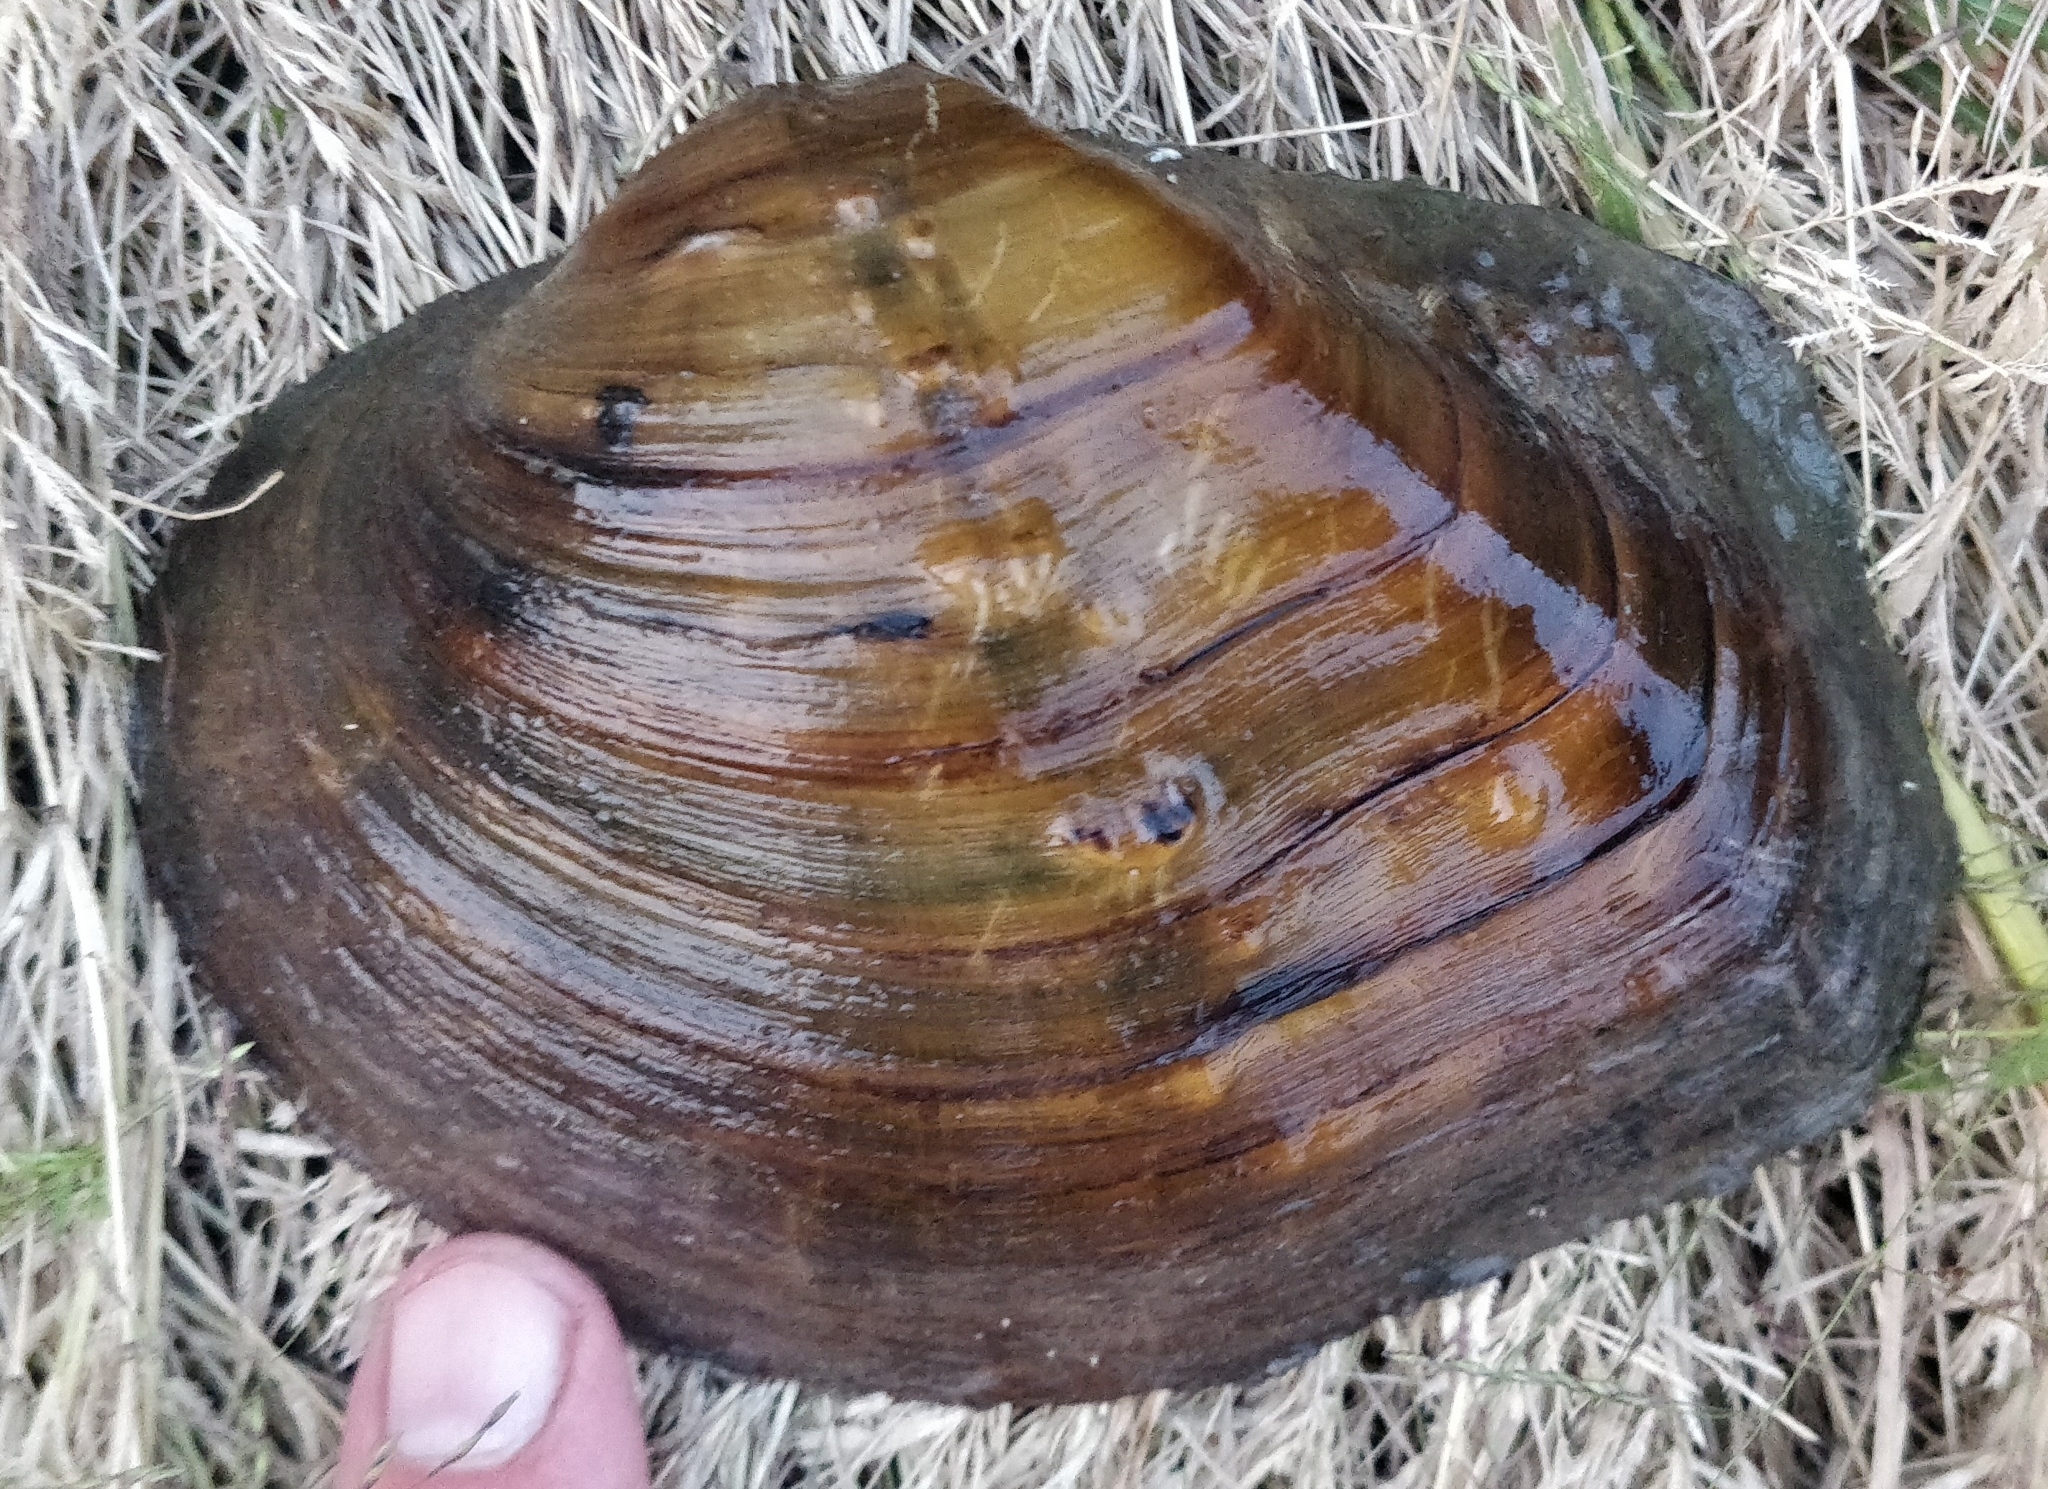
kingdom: Animalia
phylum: Mollusca
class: Bivalvia
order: Unionida
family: Unionidae
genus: Quadrula
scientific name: Quadrula quadrula
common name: Mapleleaf
